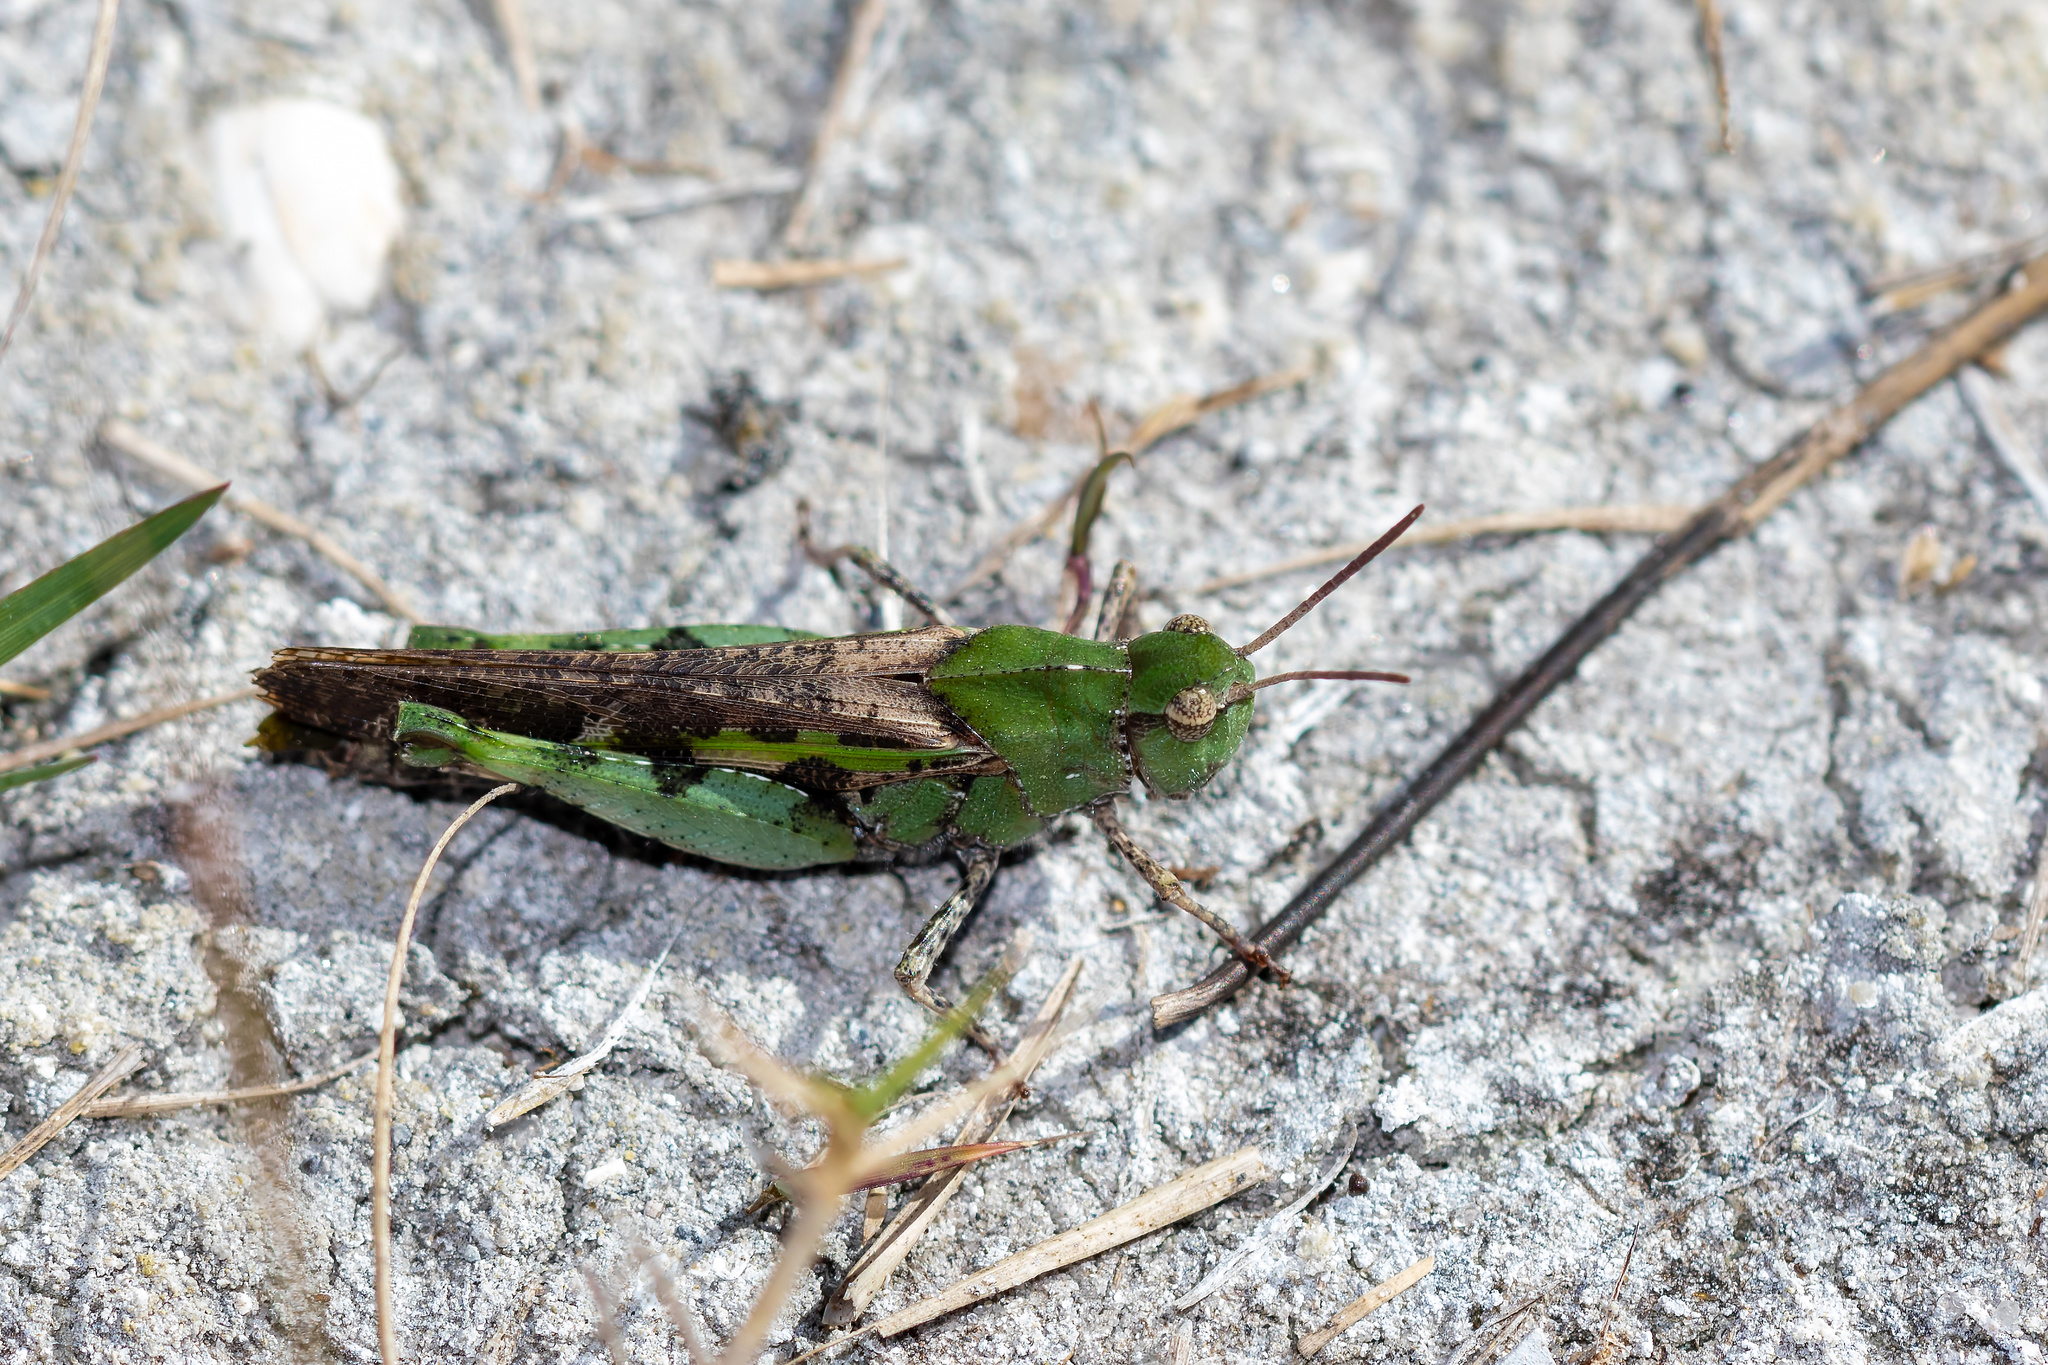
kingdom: Animalia
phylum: Arthropoda
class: Insecta
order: Orthoptera
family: Acrididae
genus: Chortophaga
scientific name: Chortophaga australior
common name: Southern green-striped grasshopper
